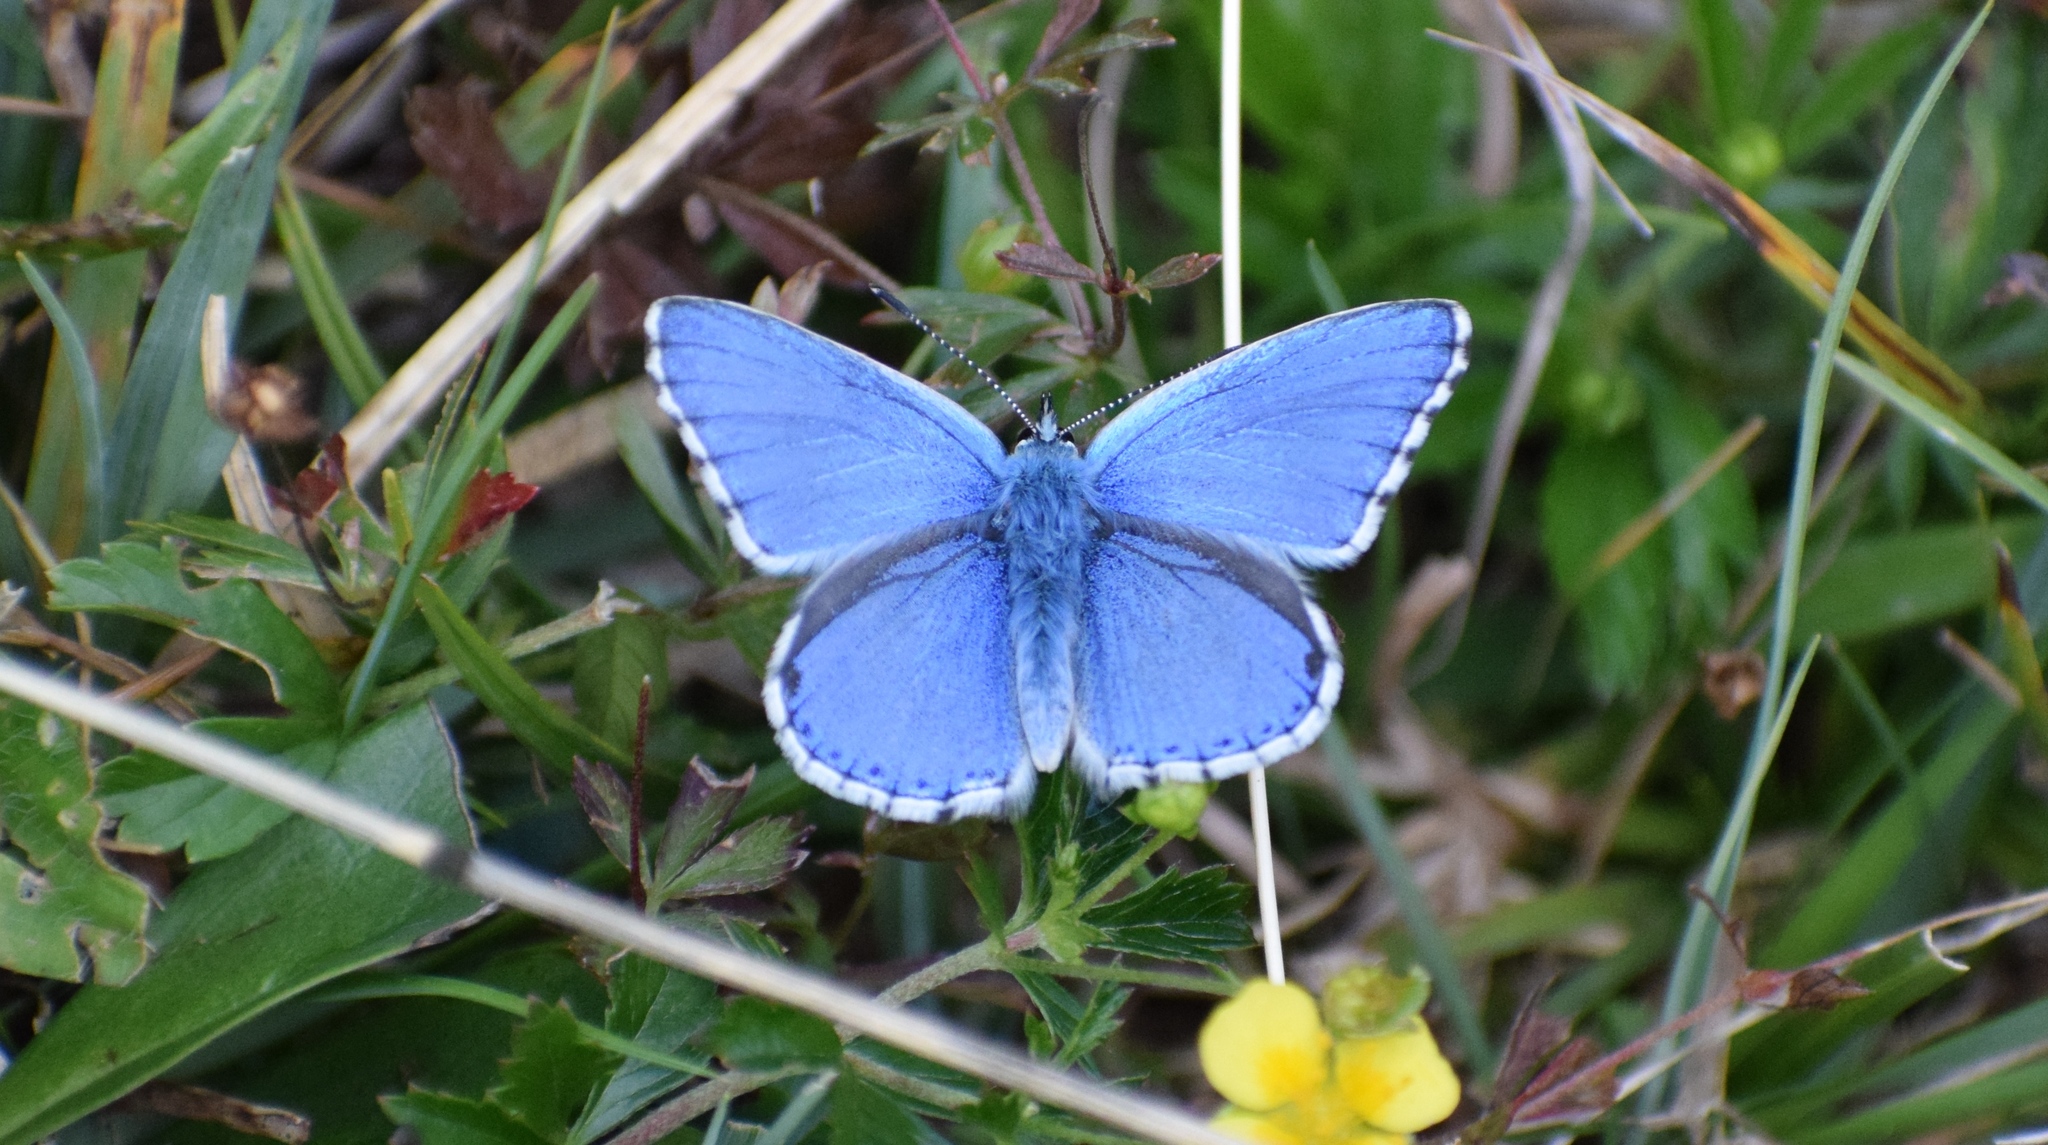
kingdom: Animalia
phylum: Arthropoda
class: Insecta
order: Lepidoptera
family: Lycaenidae
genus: Lysandra
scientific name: Lysandra bellargus
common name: Adonis blue
